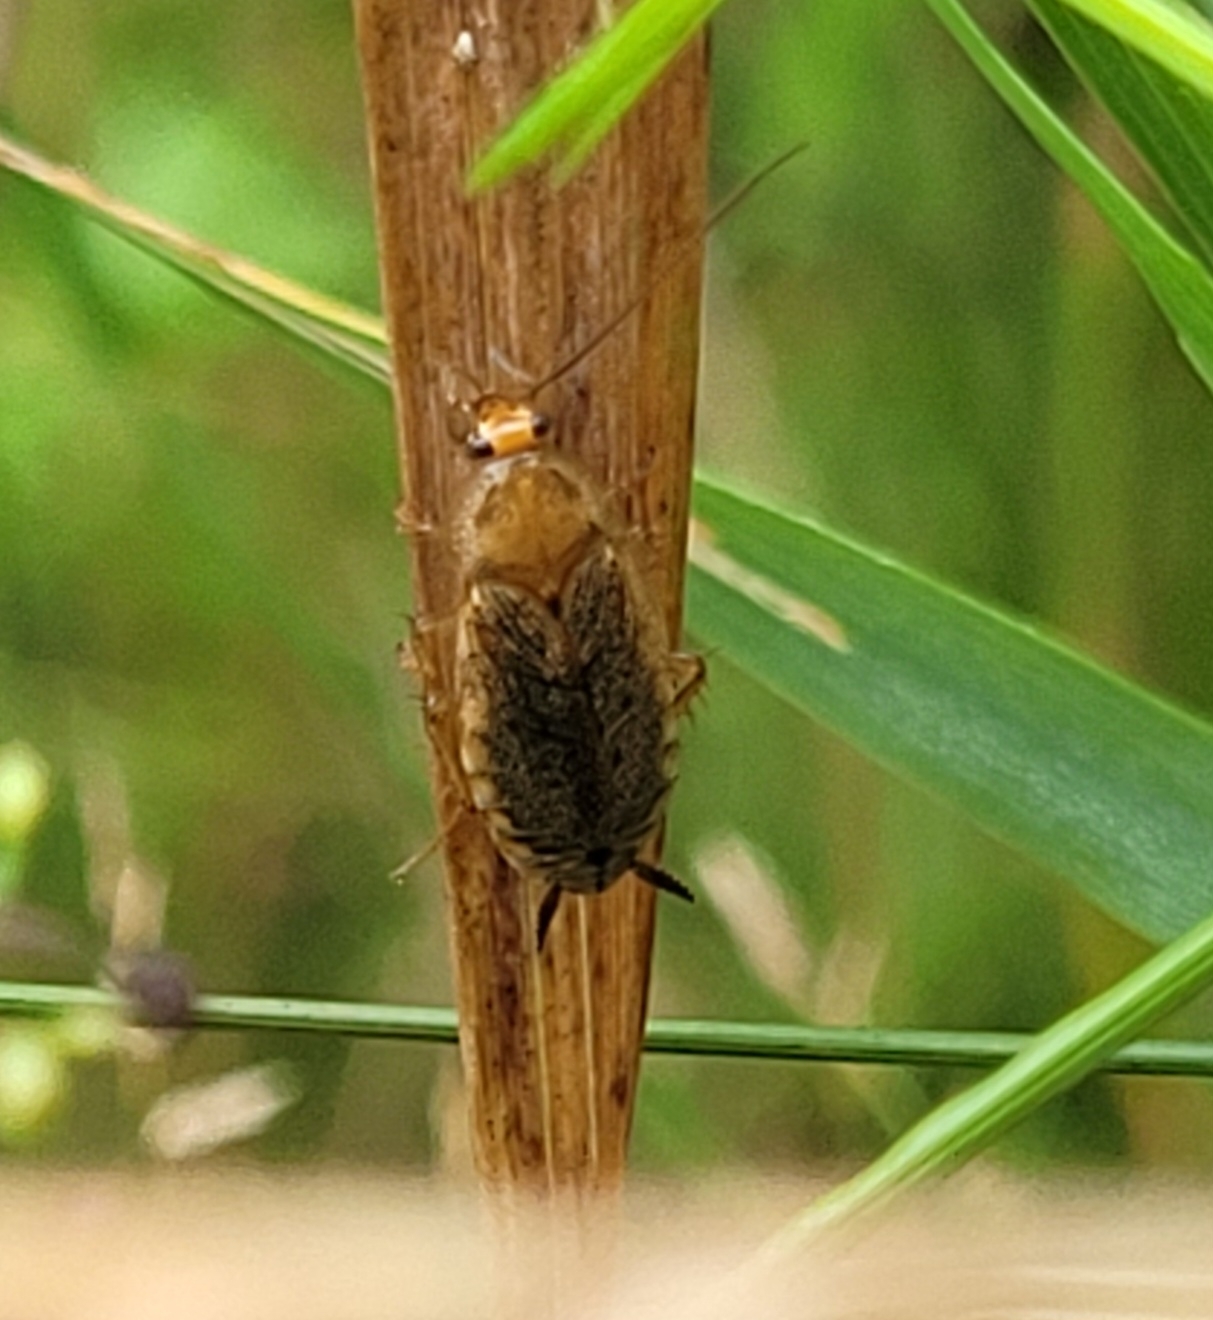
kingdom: Animalia
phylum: Arthropoda
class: Insecta
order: Blattodea
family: Ectobiidae
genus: Ectobius
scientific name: Ectobius lapponicus
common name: Dusky cockroach
